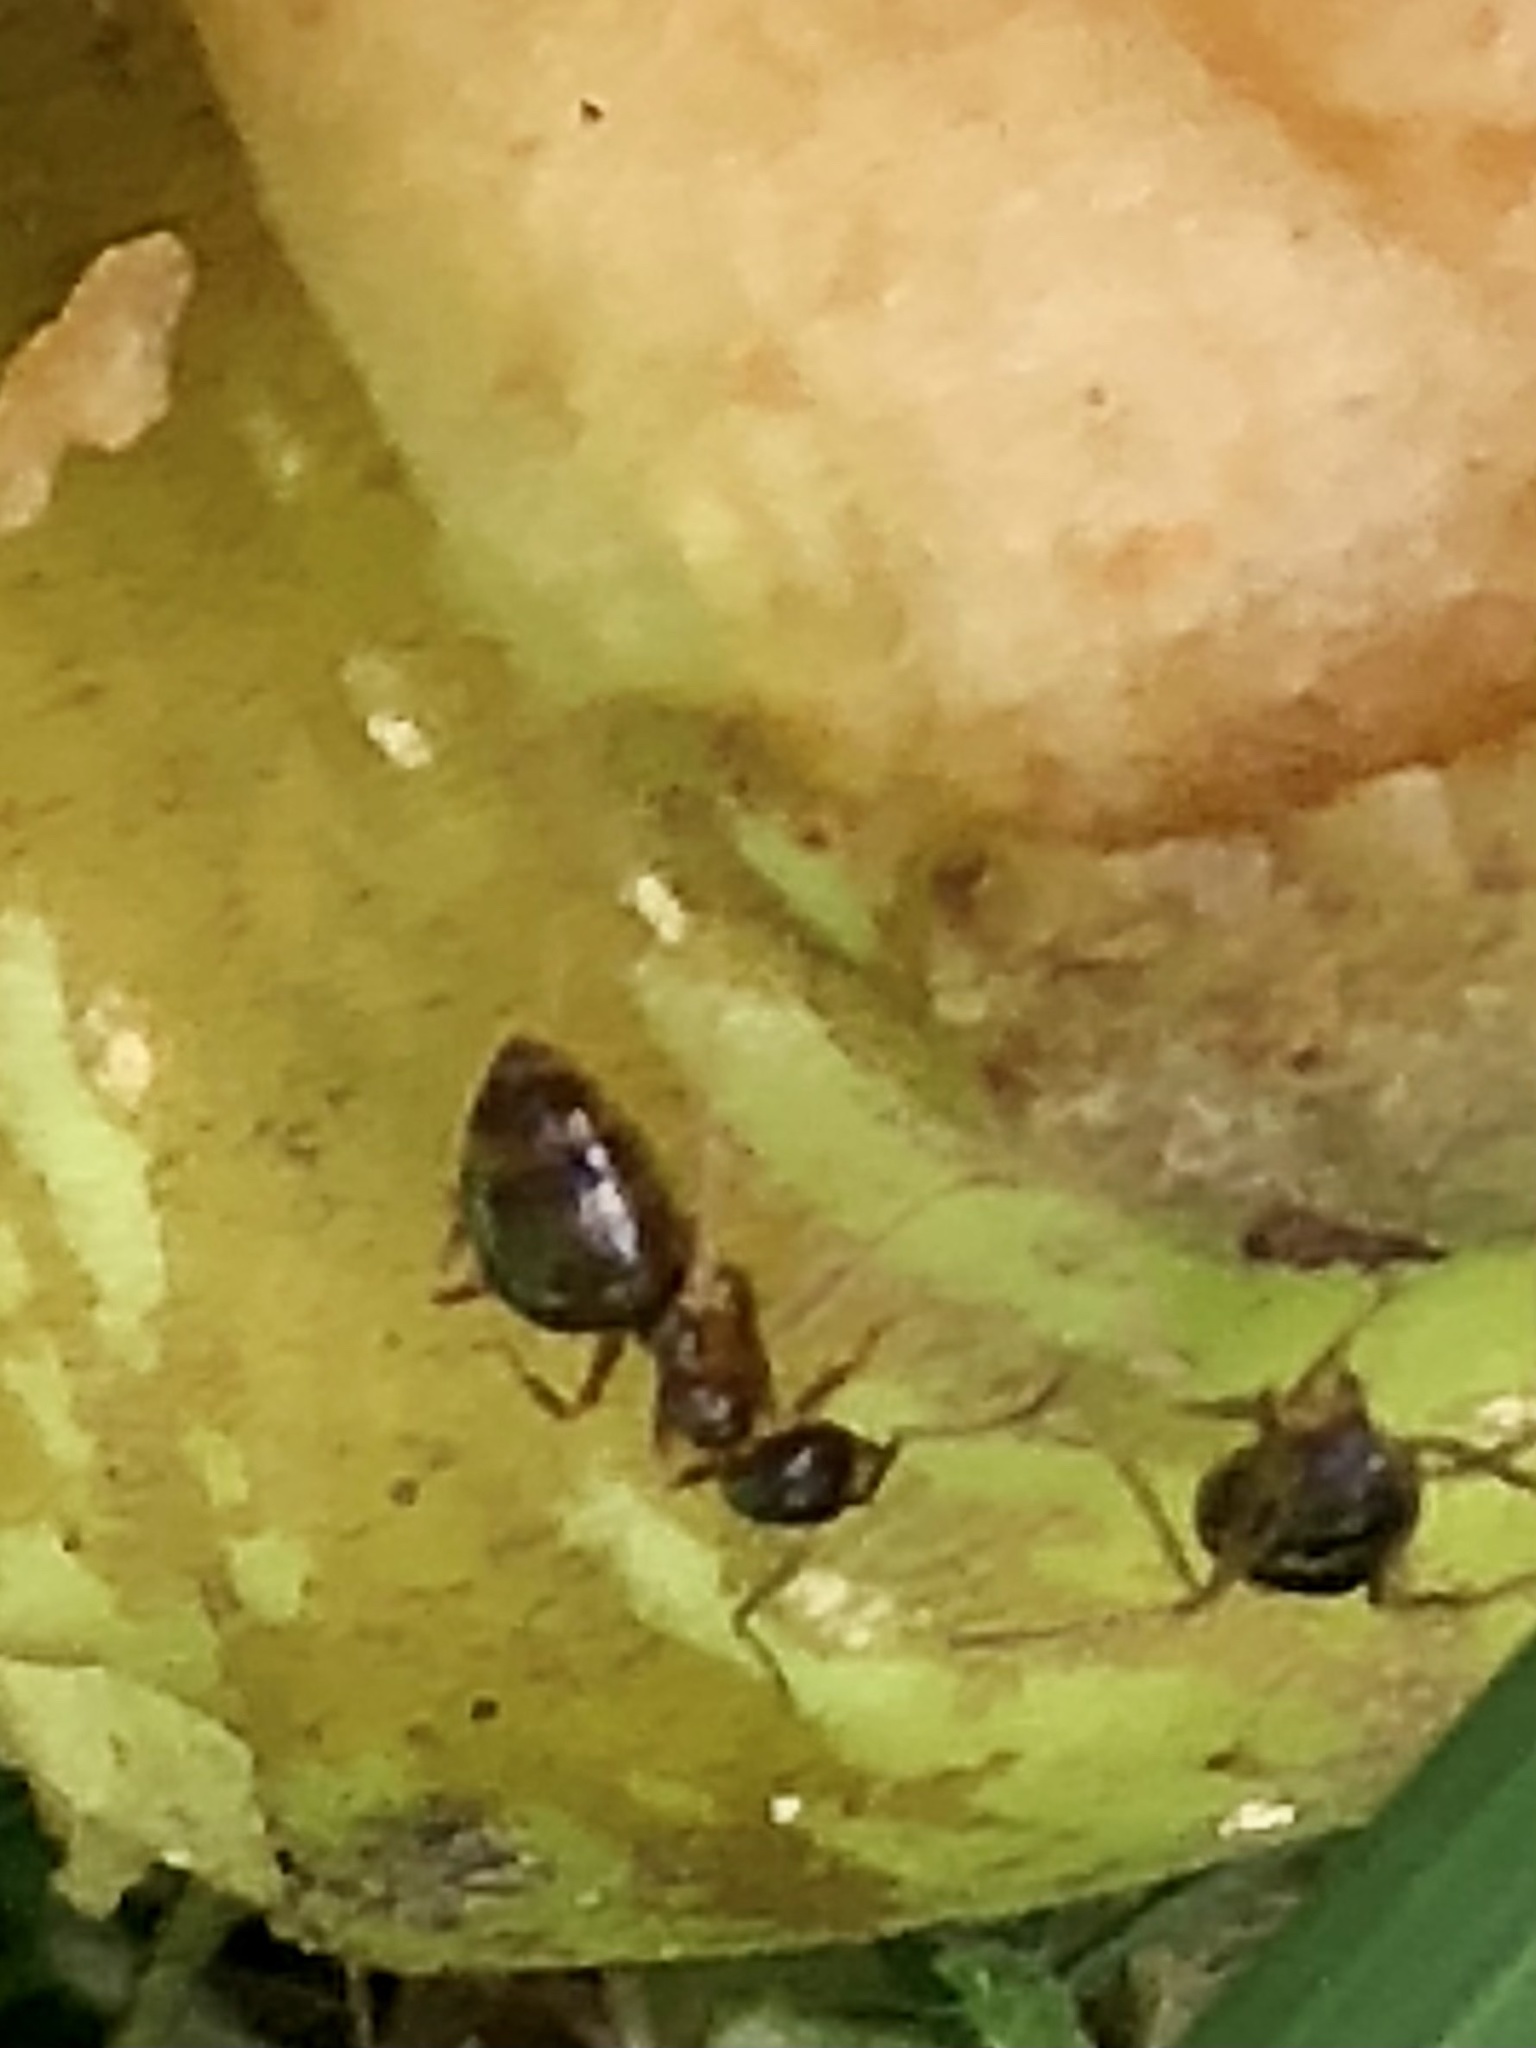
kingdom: Animalia
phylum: Arthropoda
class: Insecta
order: Hymenoptera
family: Formicidae
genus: Prenolepis
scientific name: Prenolepis imparis
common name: Small honey ant
